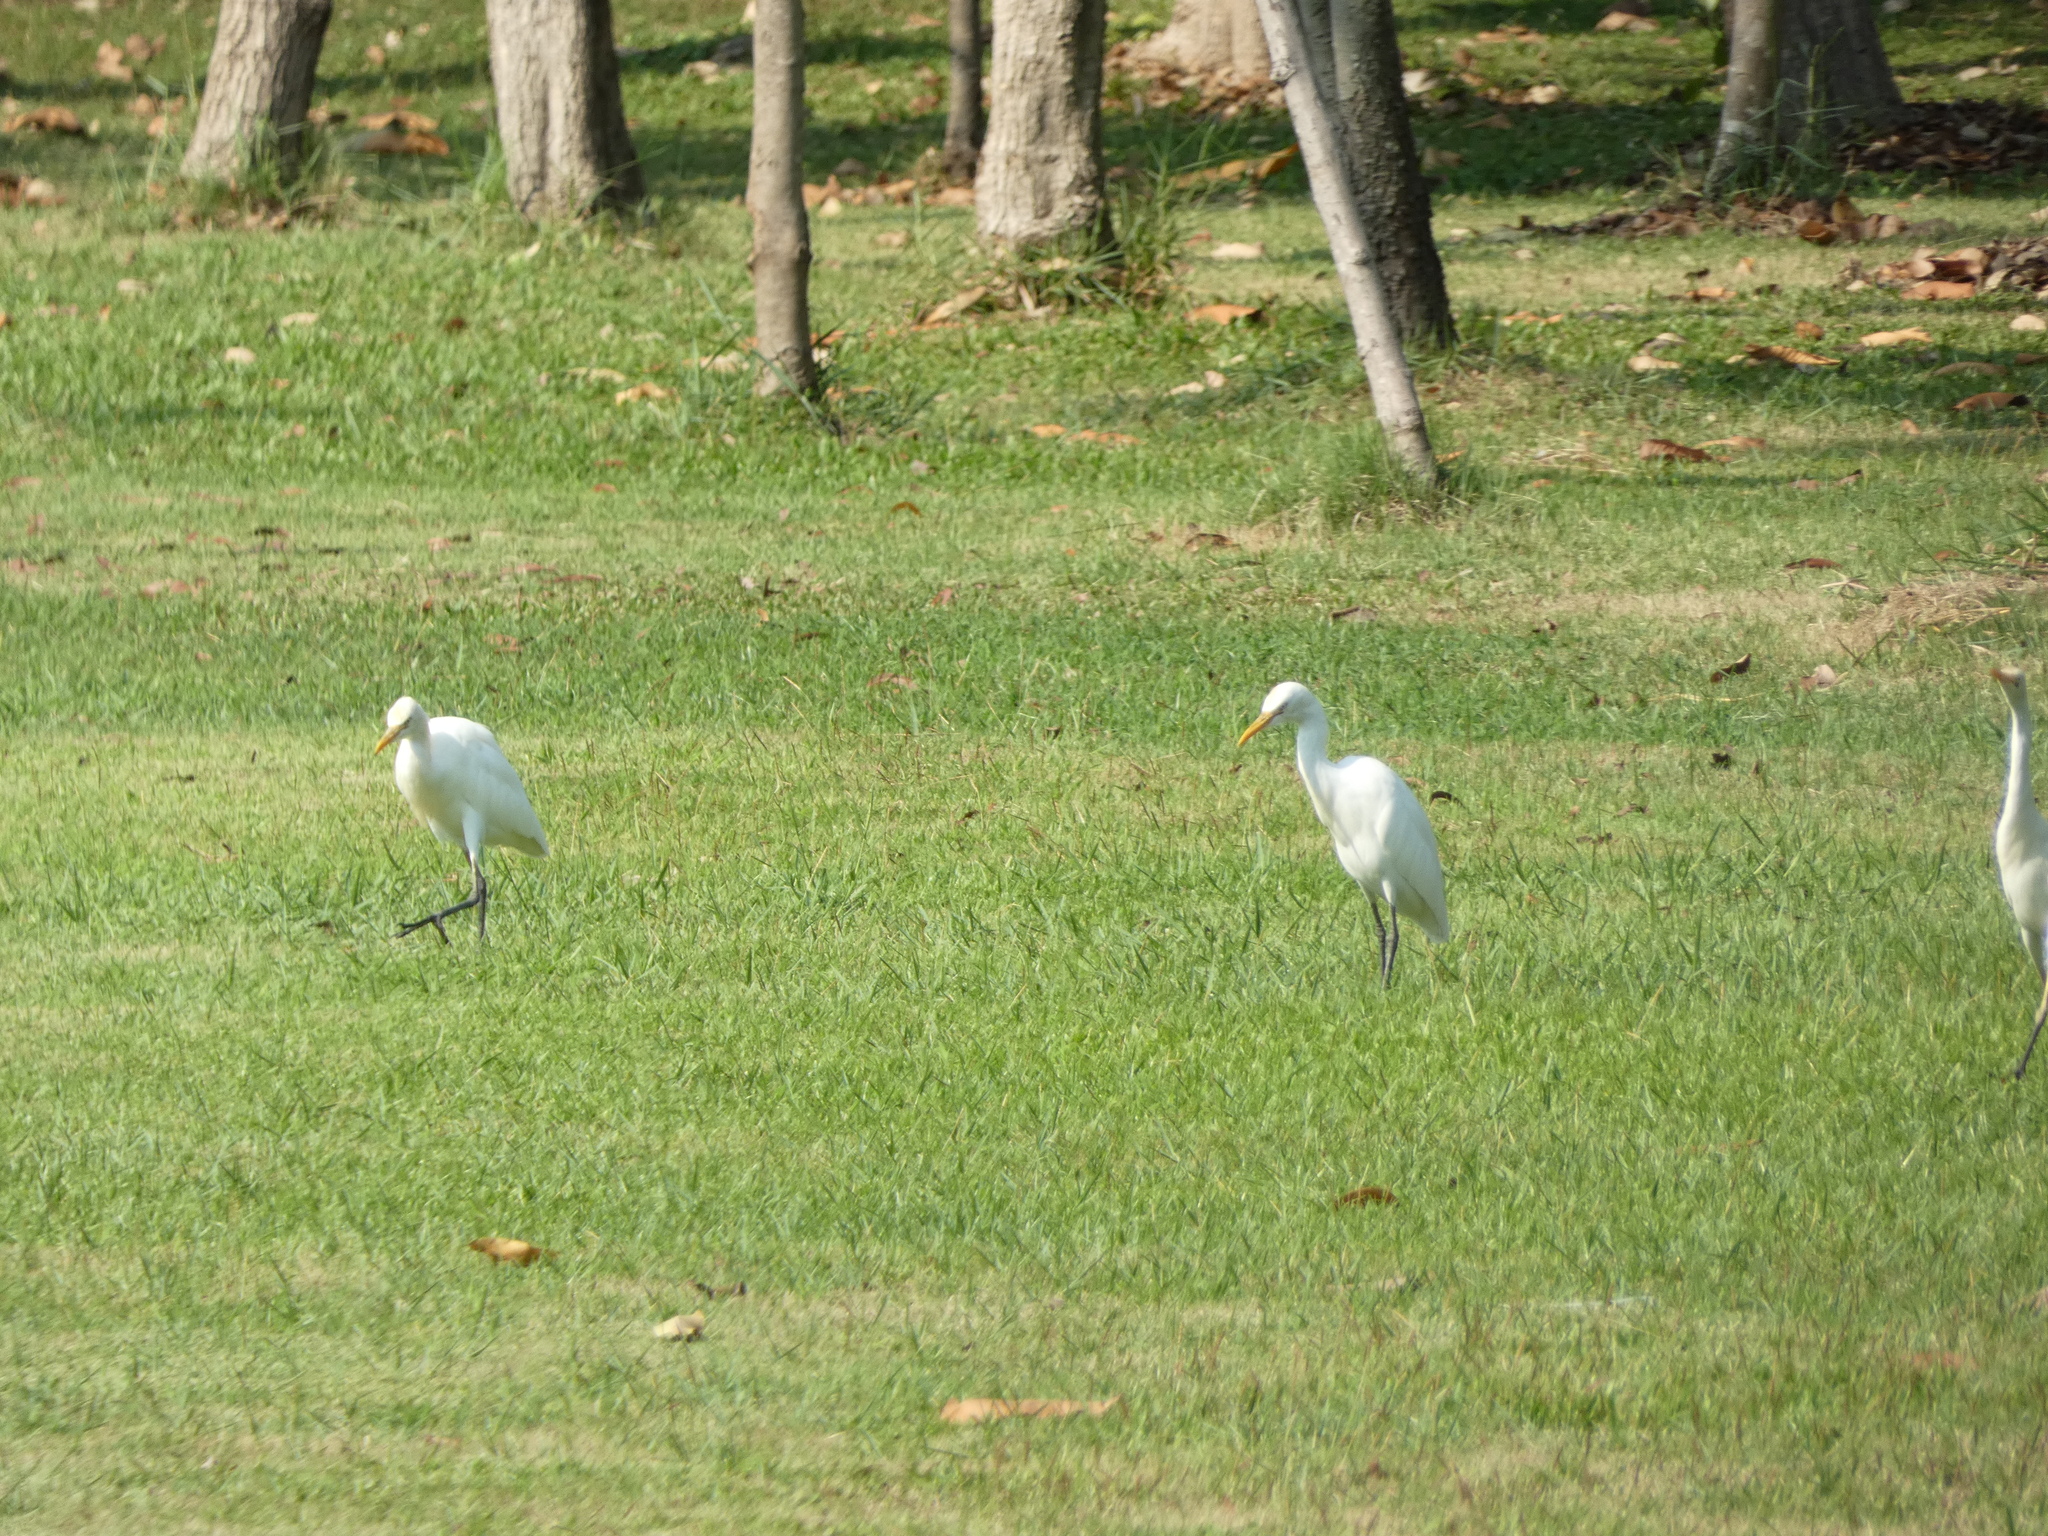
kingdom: Animalia
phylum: Chordata
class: Aves
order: Pelecaniformes
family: Ardeidae
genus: Bubulcus
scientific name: Bubulcus coromandus
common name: Eastern cattle egret
